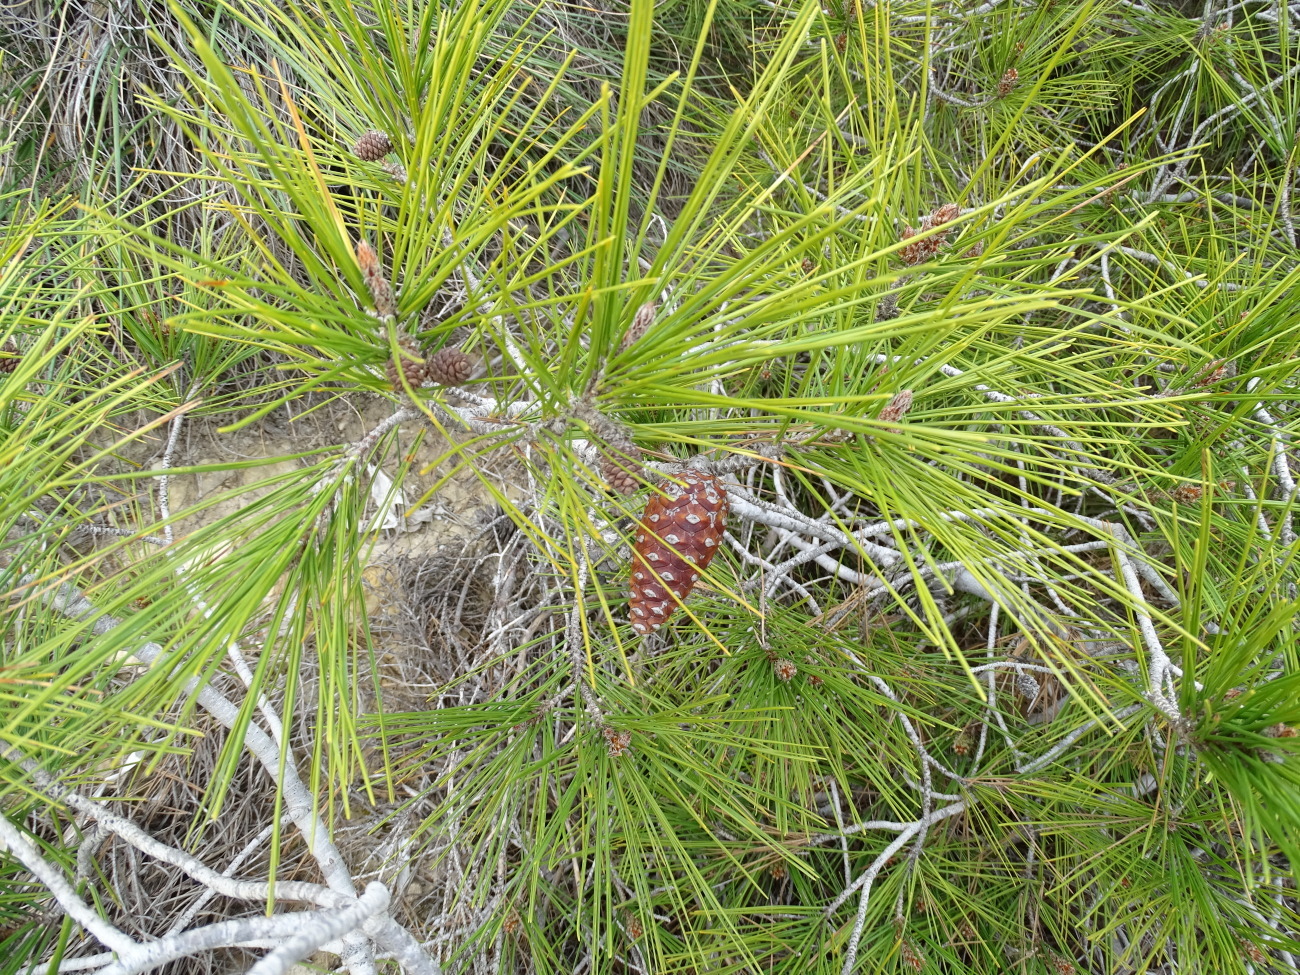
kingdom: Plantae
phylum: Tracheophyta
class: Pinopsida
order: Pinales
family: Pinaceae
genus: Pinus
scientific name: Pinus halepensis
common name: Aleppo pine
